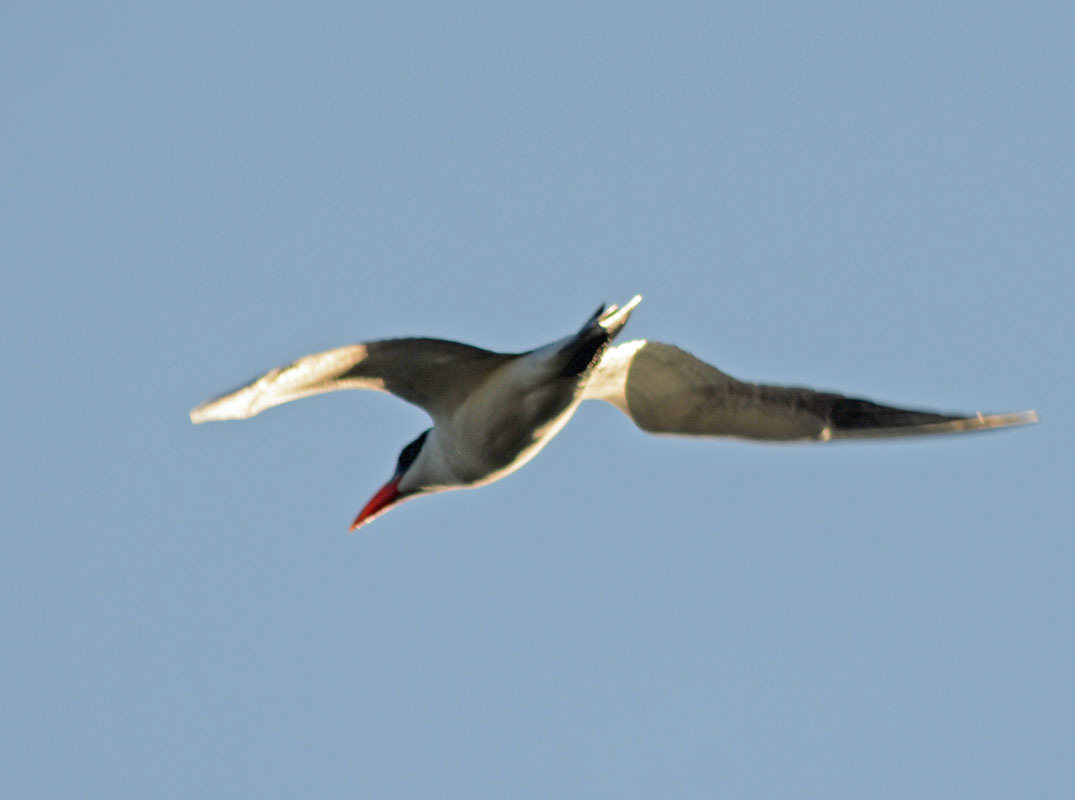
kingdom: Animalia
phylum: Chordata
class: Aves
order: Charadriiformes
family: Laridae
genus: Hydroprogne
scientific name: Hydroprogne caspia
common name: Caspian tern
